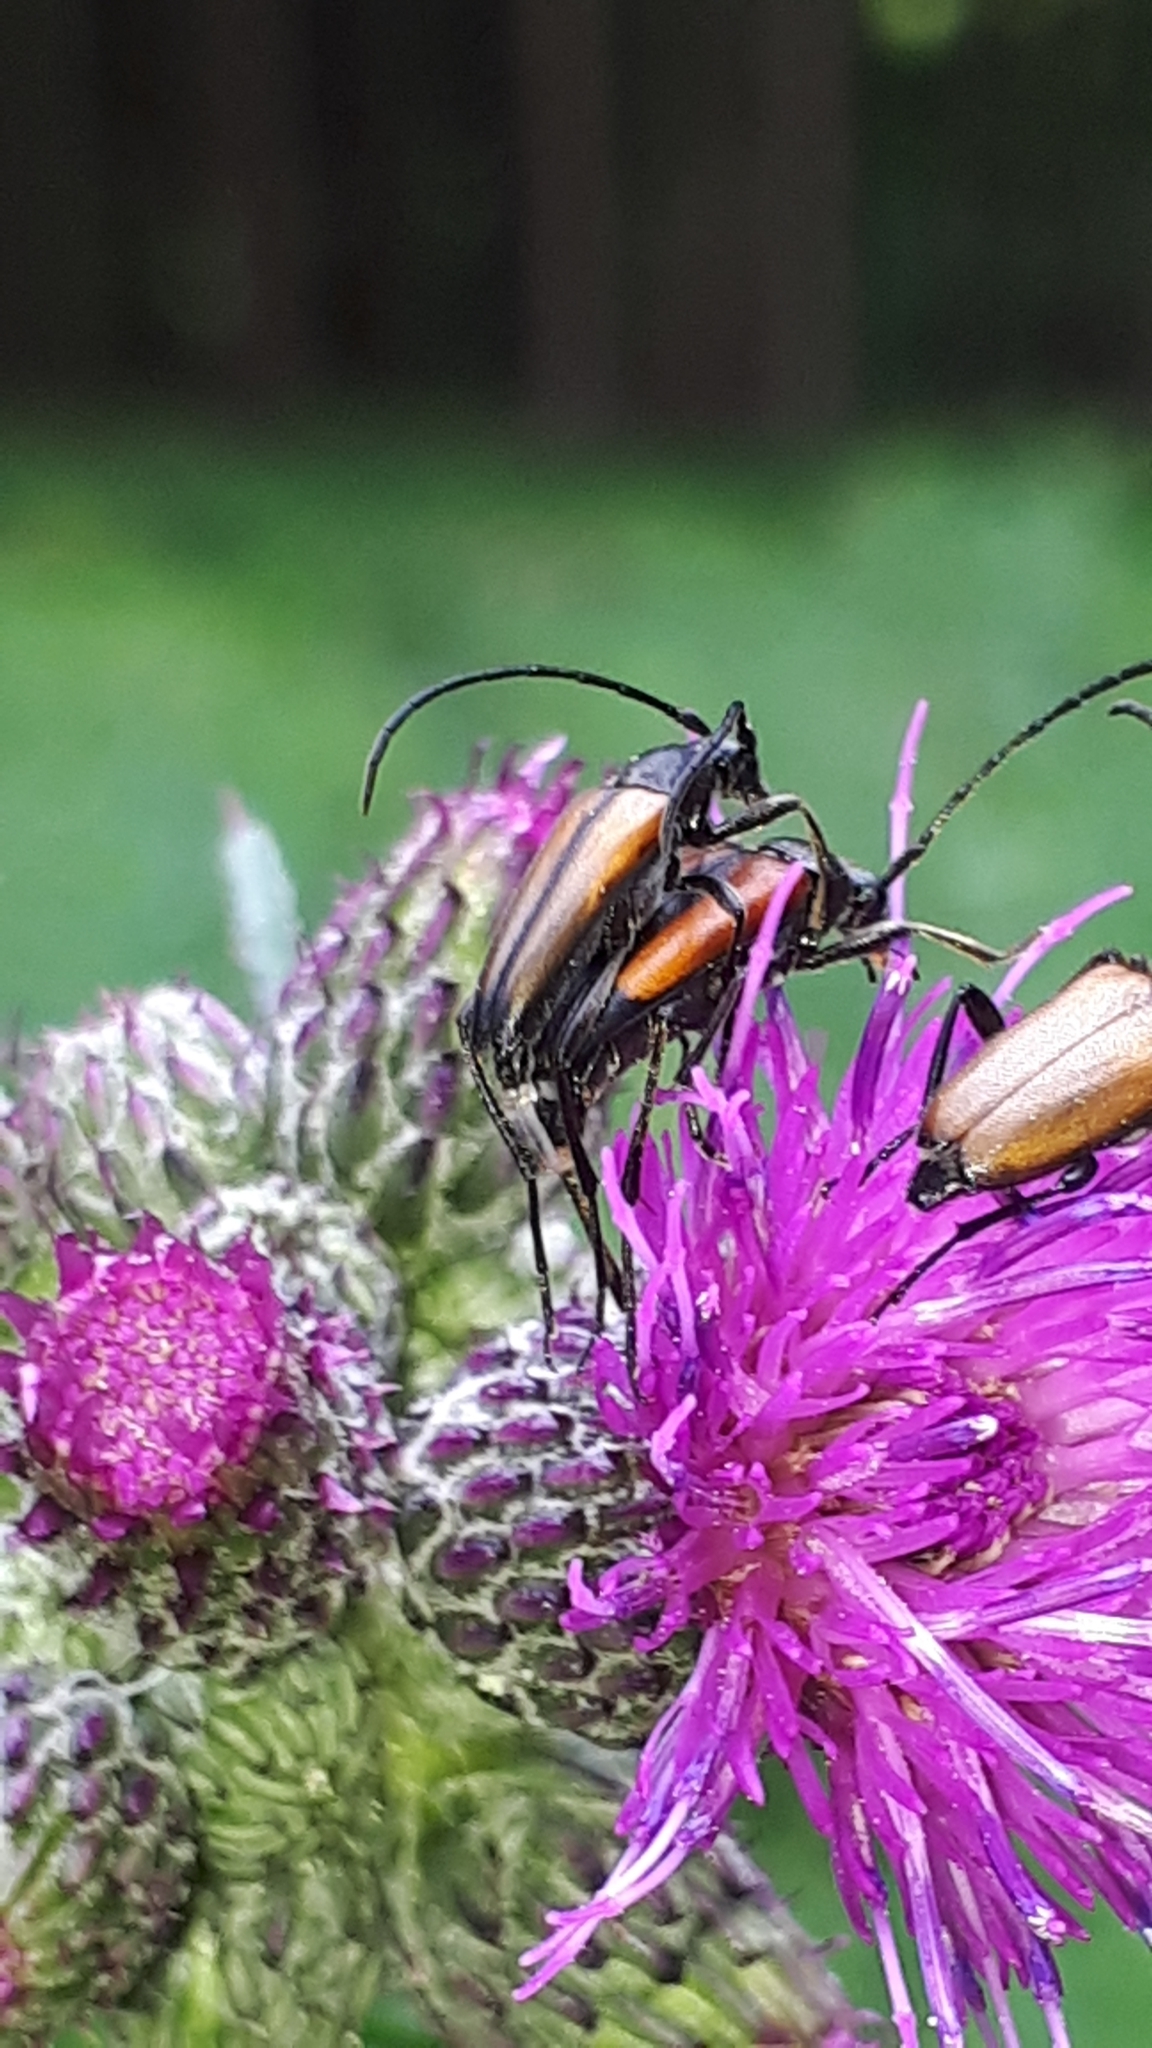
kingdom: Animalia
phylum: Arthropoda
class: Insecta
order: Coleoptera
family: Cerambycidae
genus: Stenurella
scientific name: Stenurella melanura
